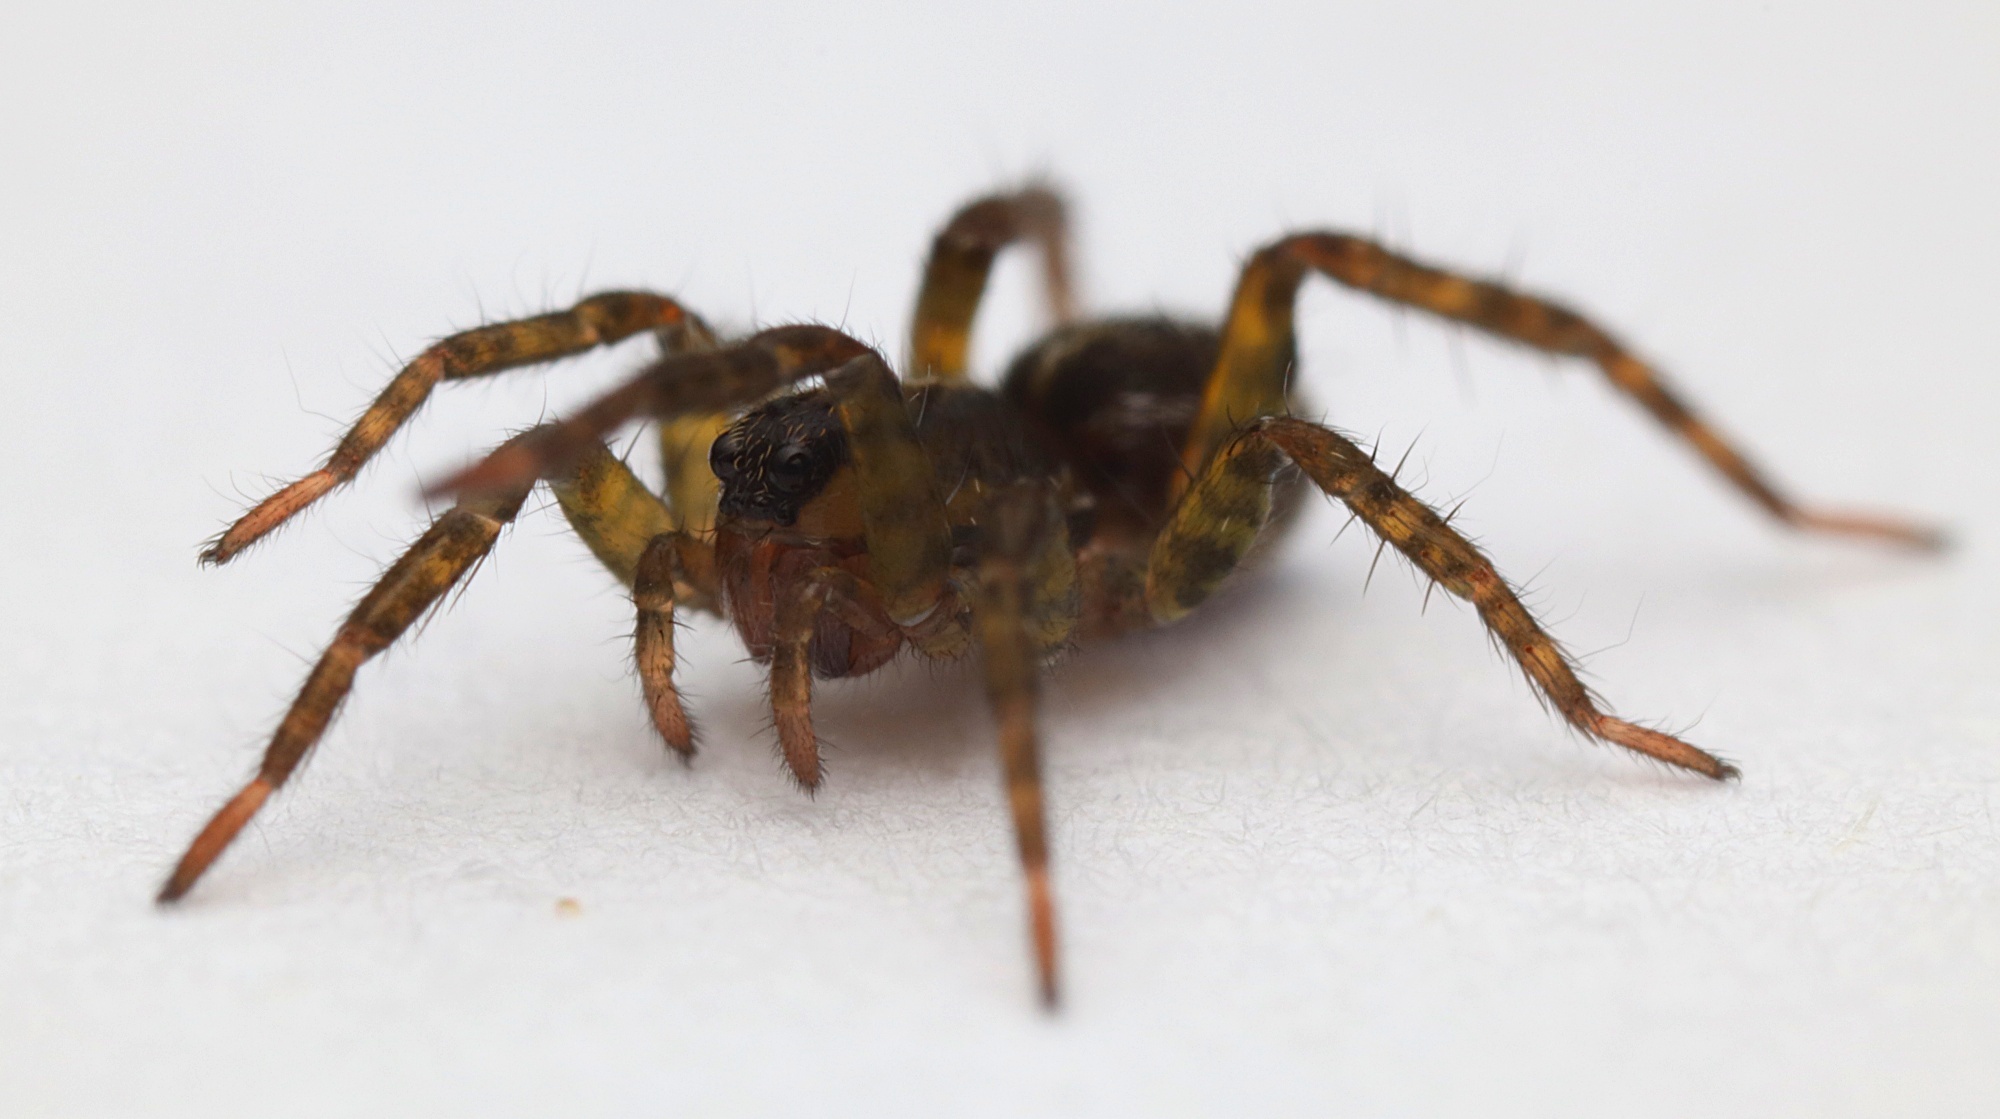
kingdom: Animalia
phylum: Arthropoda
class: Arachnida
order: Araneae
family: Lycosidae
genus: Anoteropsis
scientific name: Anoteropsis hilaris
